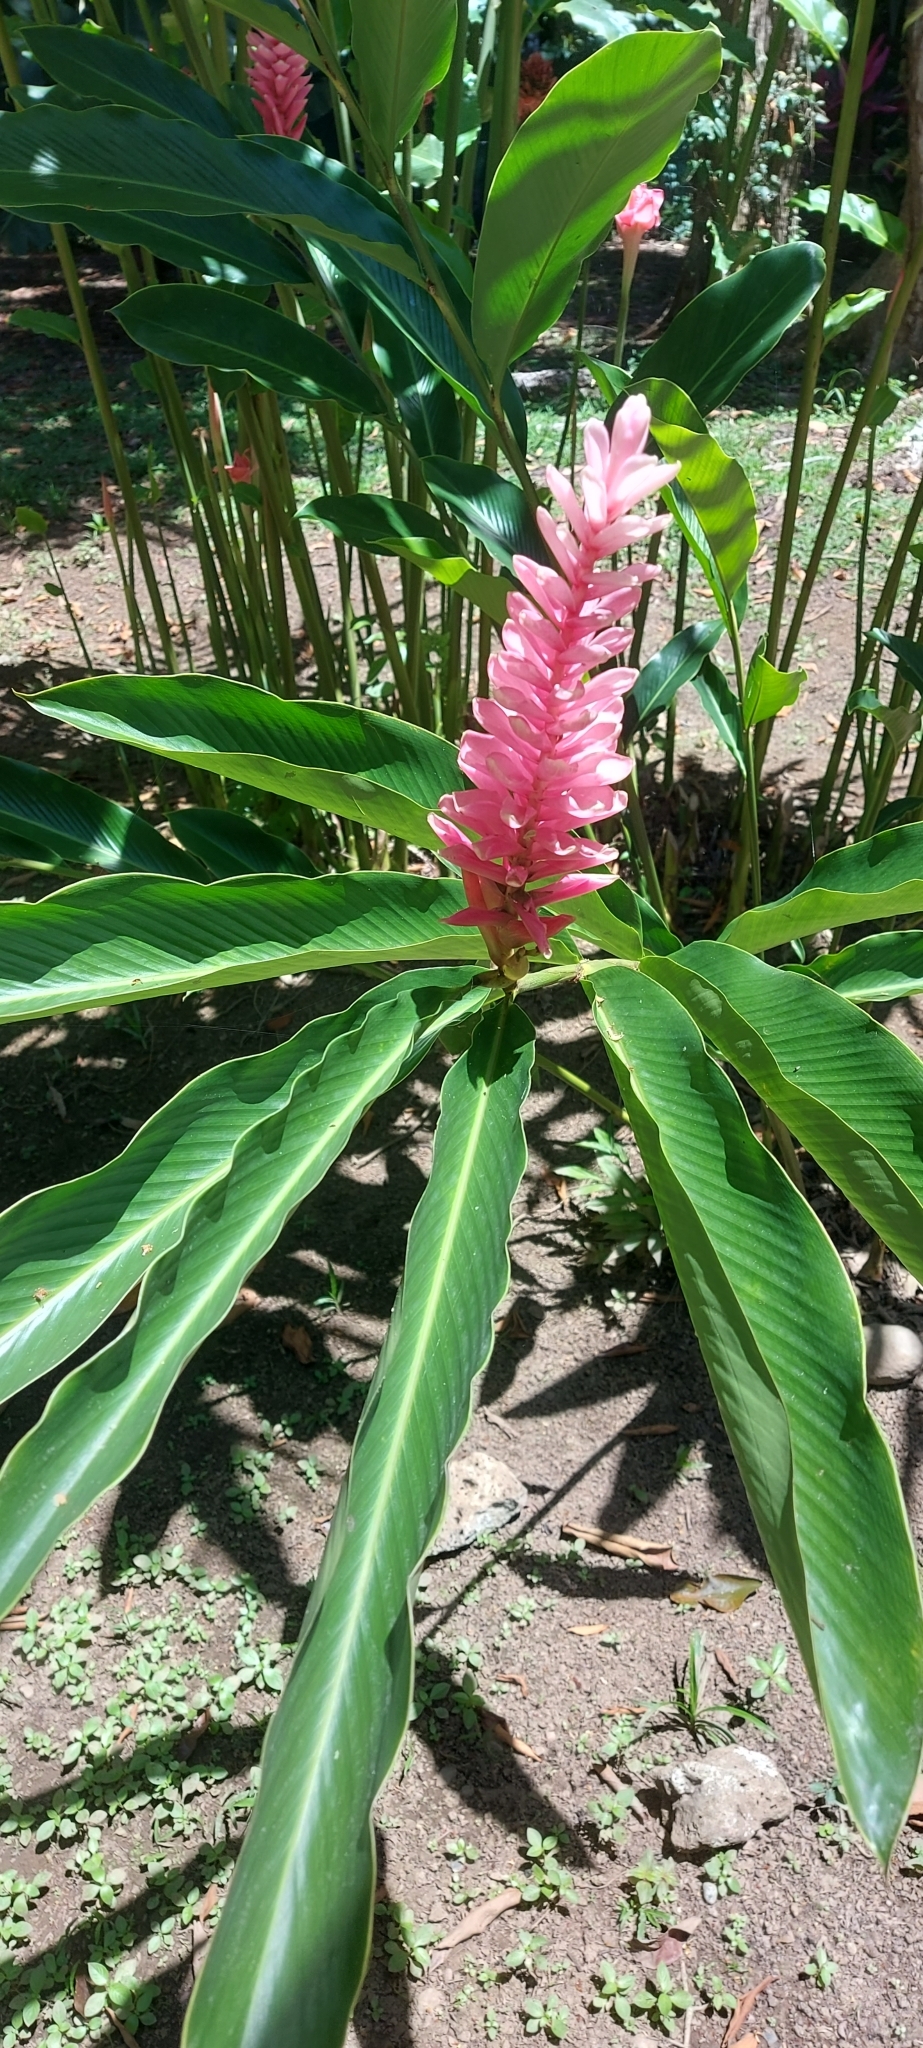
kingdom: Plantae
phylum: Tracheophyta
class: Liliopsida
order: Zingiberales
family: Zingiberaceae
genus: Alpinia
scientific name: Alpinia purpurata
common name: Red ginger
